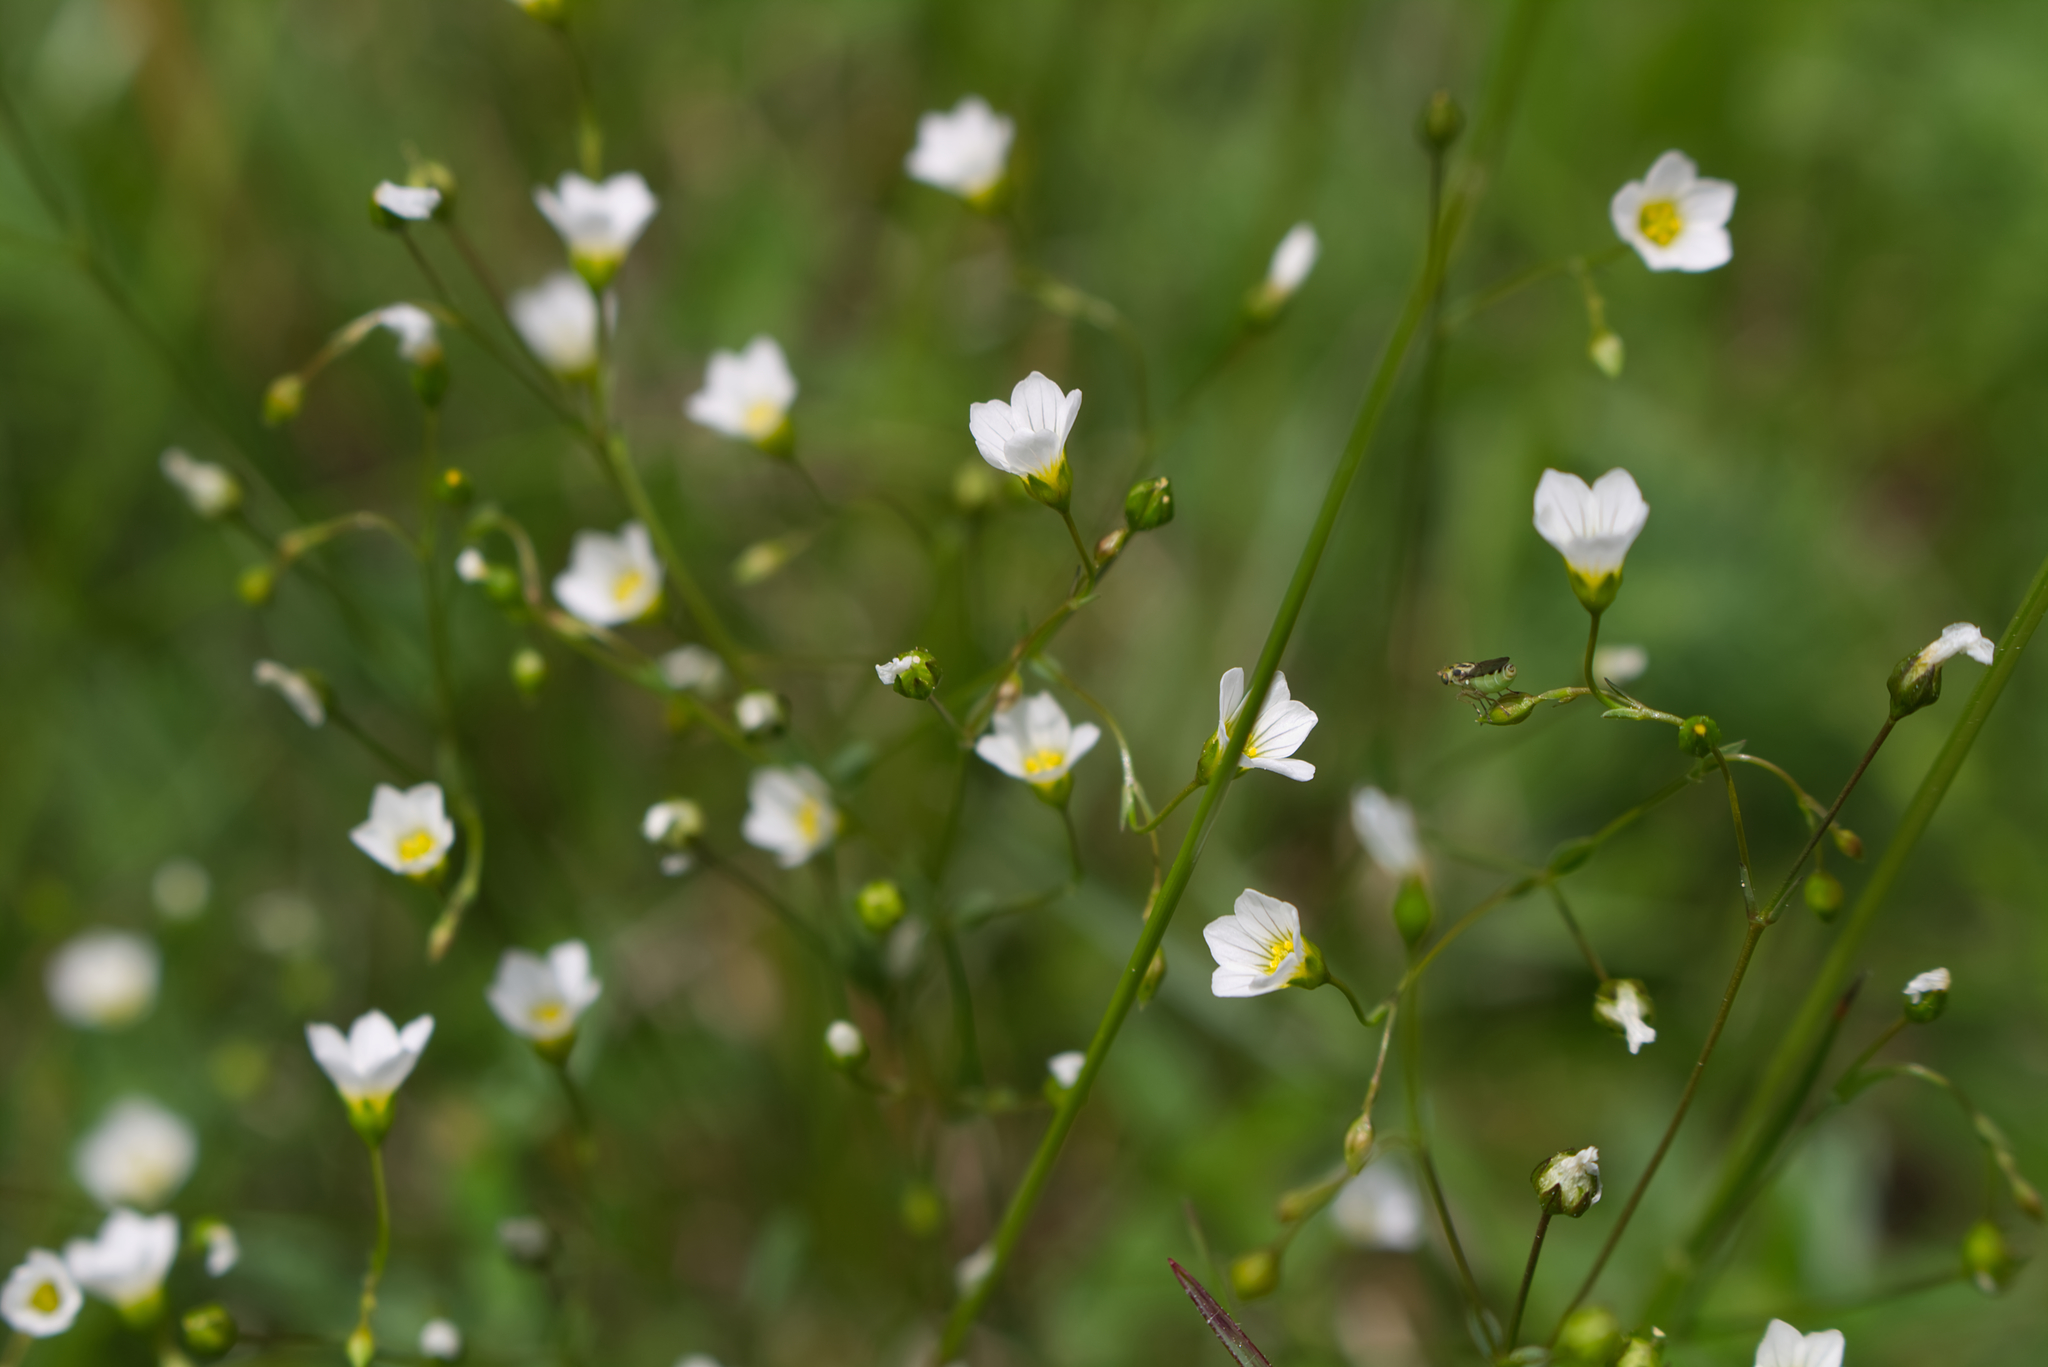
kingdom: Plantae
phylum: Tracheophyta
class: Magnoliopsida
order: Malpighiales
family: Linaceae
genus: Linum
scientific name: Linum catharticum
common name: Fairy flax
